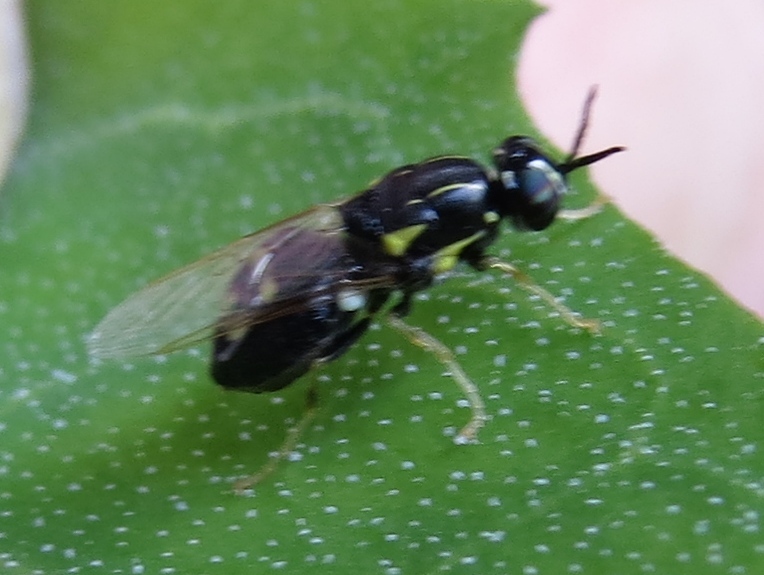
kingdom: Animalia
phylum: Arthropoda
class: Insecta
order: Diptera
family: Stratiomyidae
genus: Caloparyphus
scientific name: Caloparyphus tetraspilus
